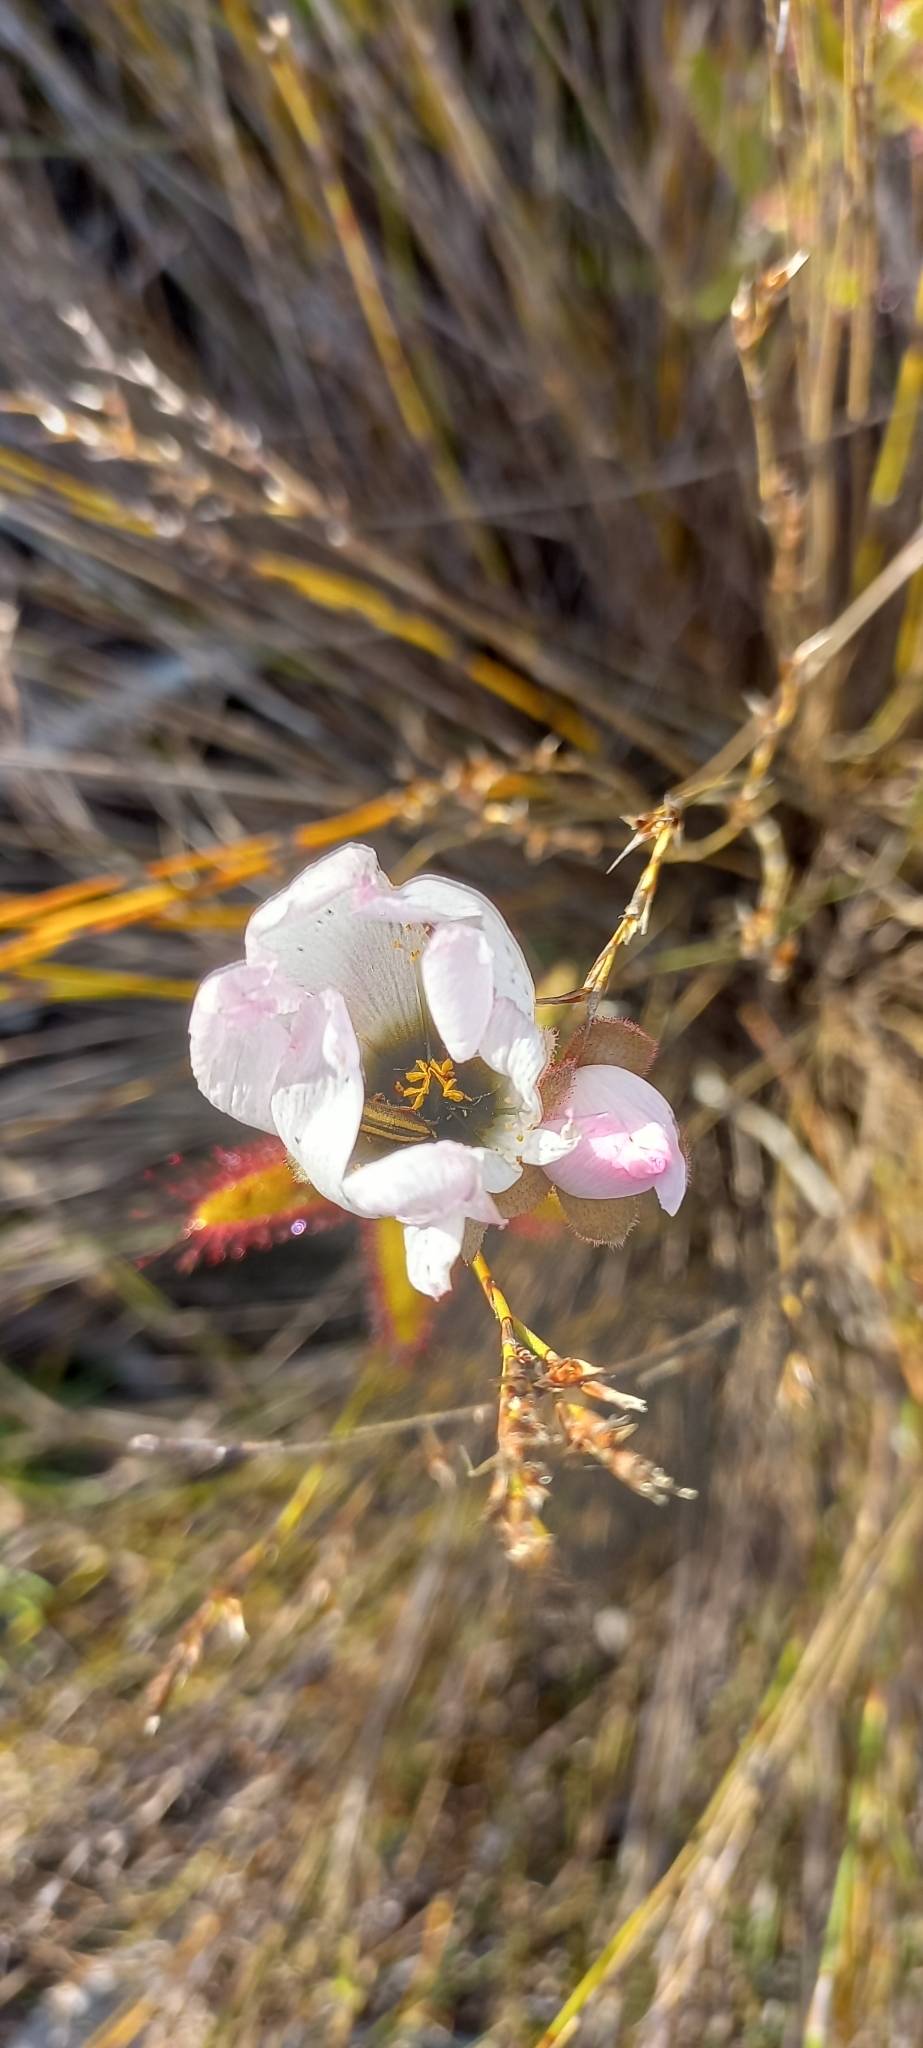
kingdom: Plantae
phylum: Tracheophyta
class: Magnoliopsida
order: Caryophyllales
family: Droseraceae
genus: Drosera
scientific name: Drosera cistiflora
